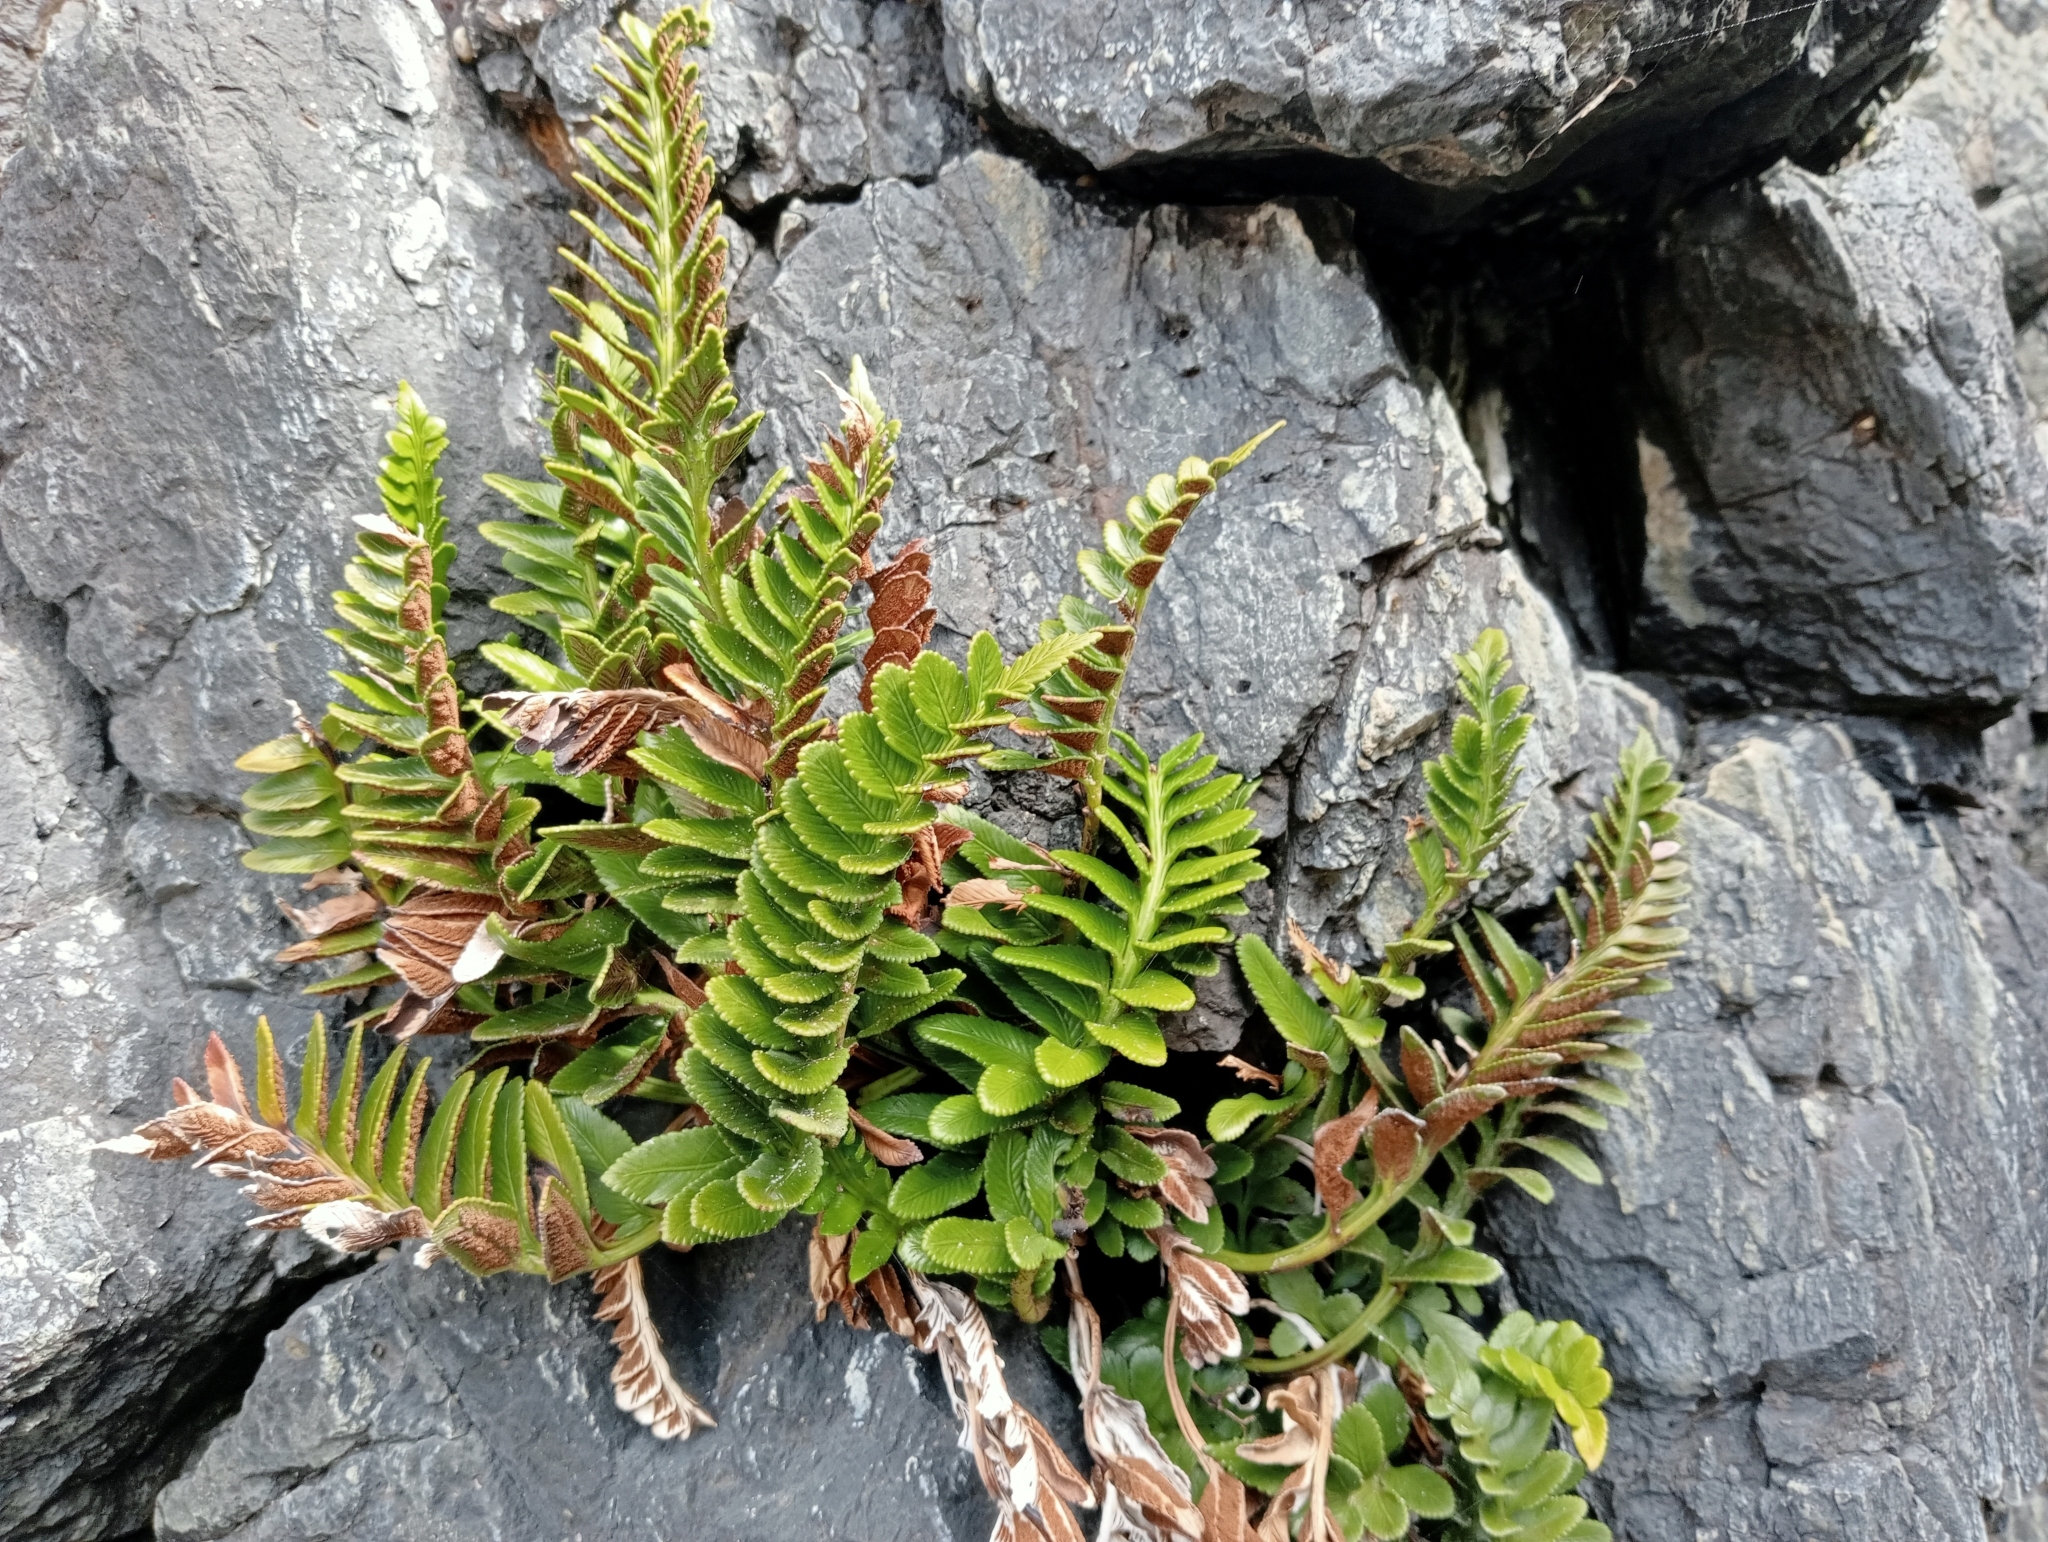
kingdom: Plantae
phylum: Tracheophyta
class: Polypodiopsida
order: Polypodiales
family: Aspleniaceae
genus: Asplenium
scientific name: Asplenium obtusatum
